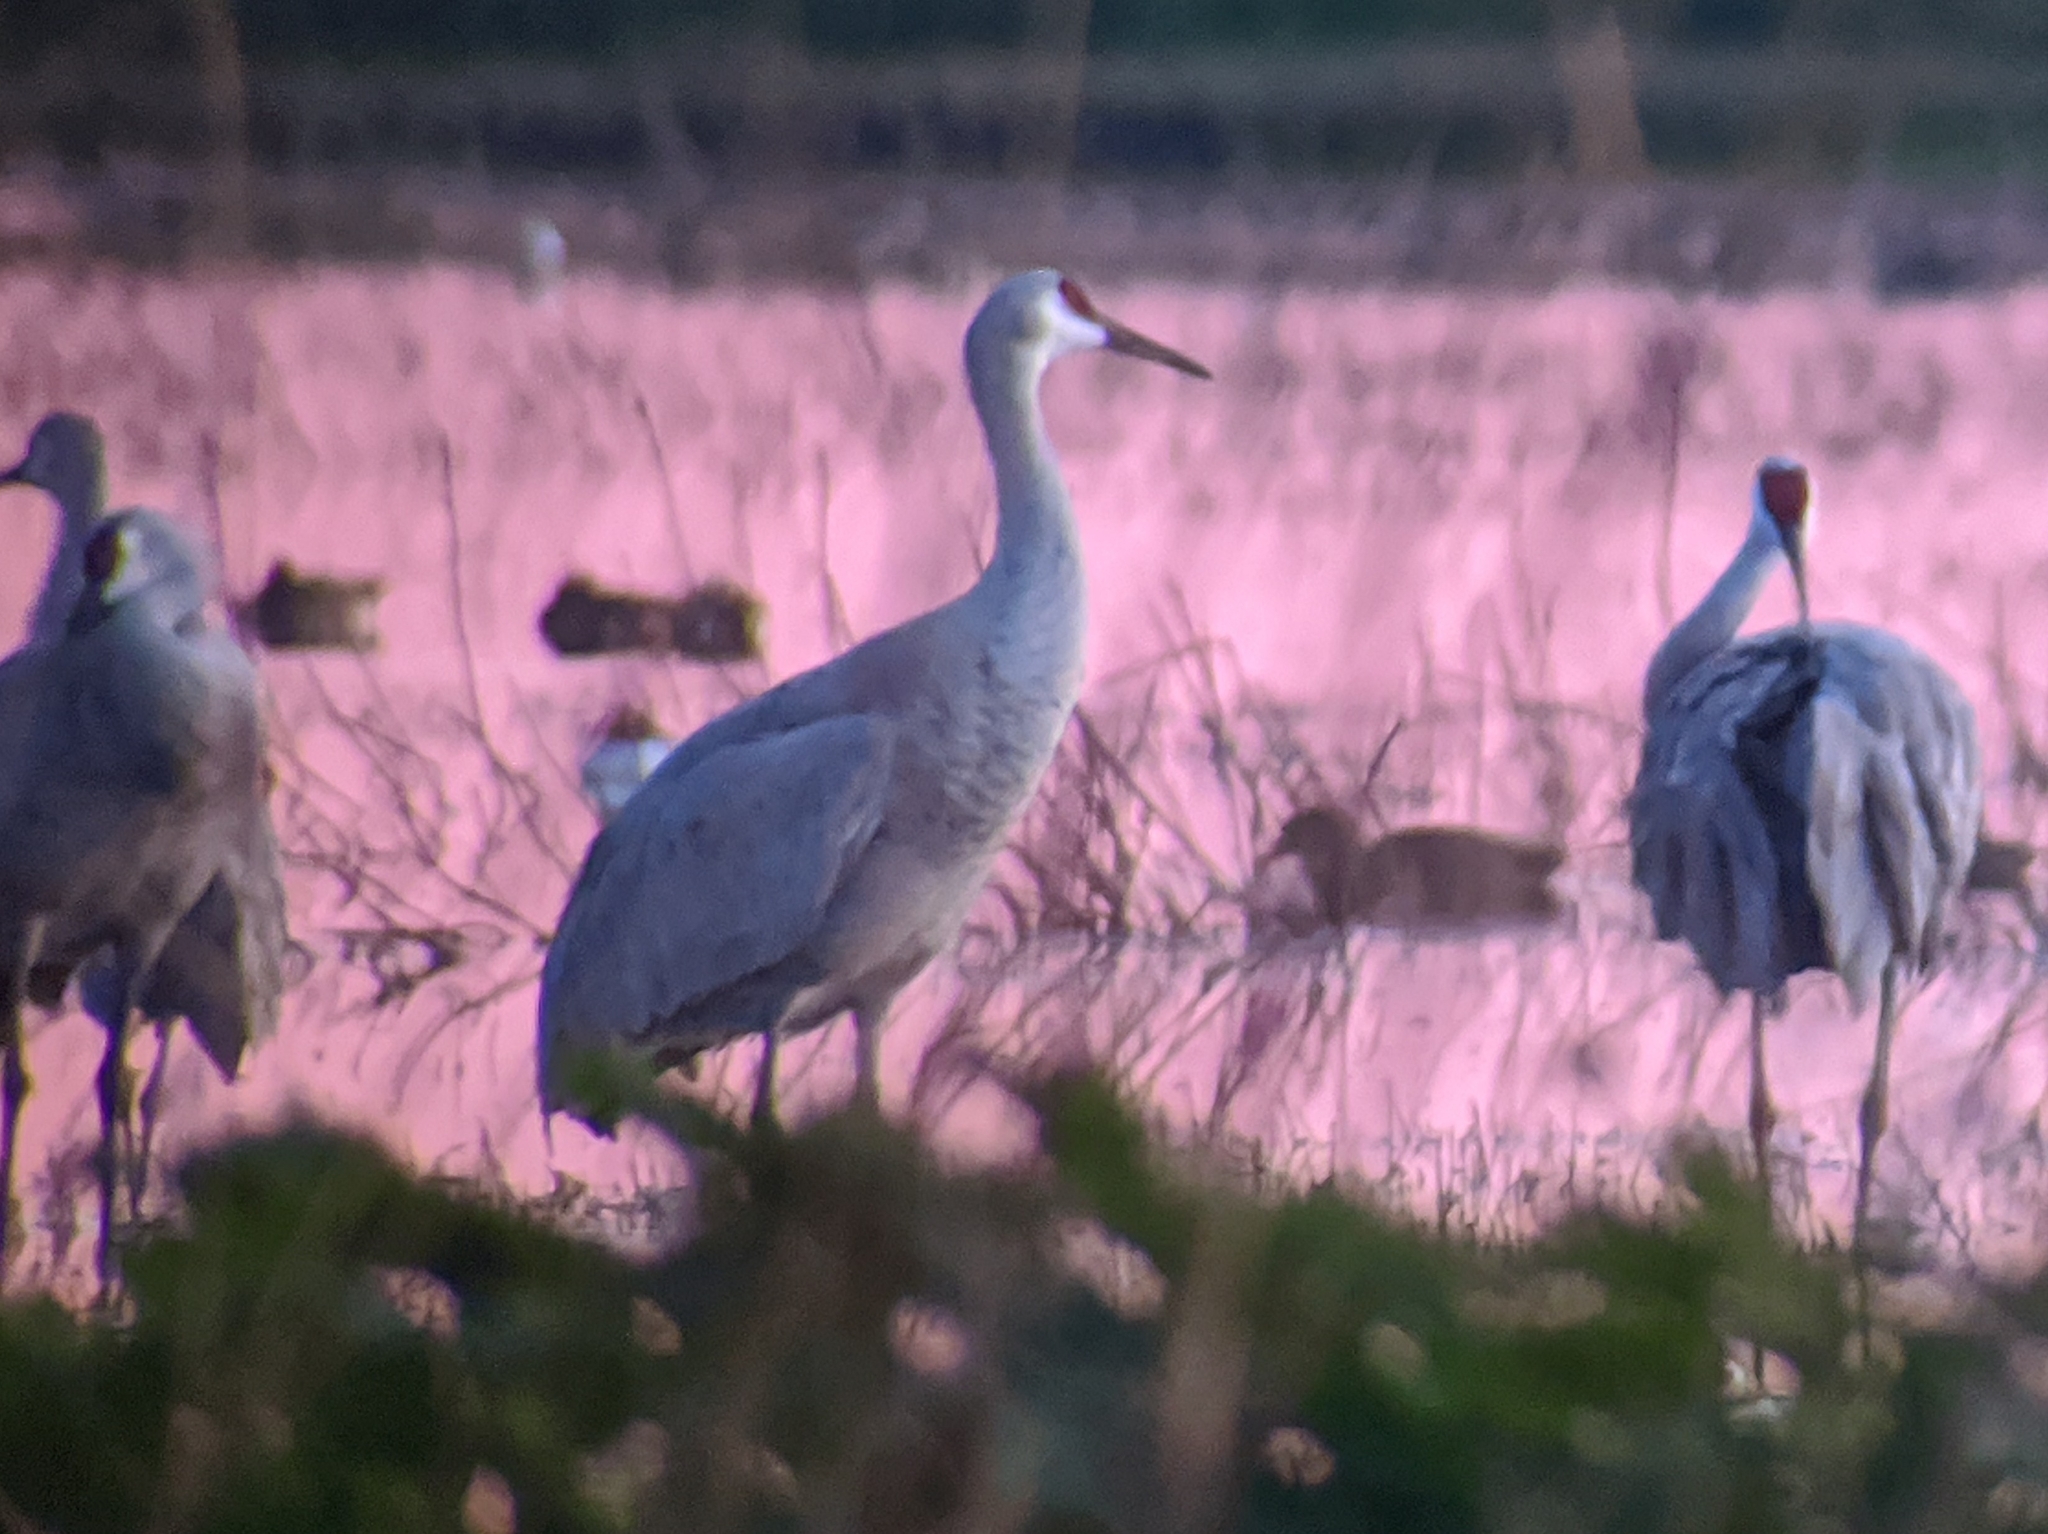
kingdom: Animalia
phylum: Chordata
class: Aves
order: Gruiformes
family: Gruidae
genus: Grus
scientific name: Grus canadensis
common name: Sandhill crane
